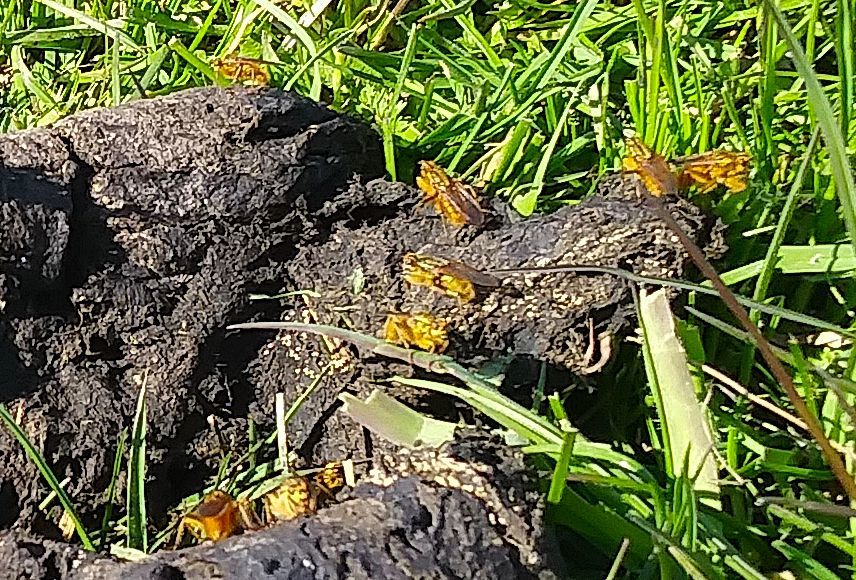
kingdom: Animalia
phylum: Arthropoda
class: Insecta
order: Diptera
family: Scathophagidae
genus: Scathophaga
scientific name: Scathophaga stercoraria
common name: Yellow dung fly
